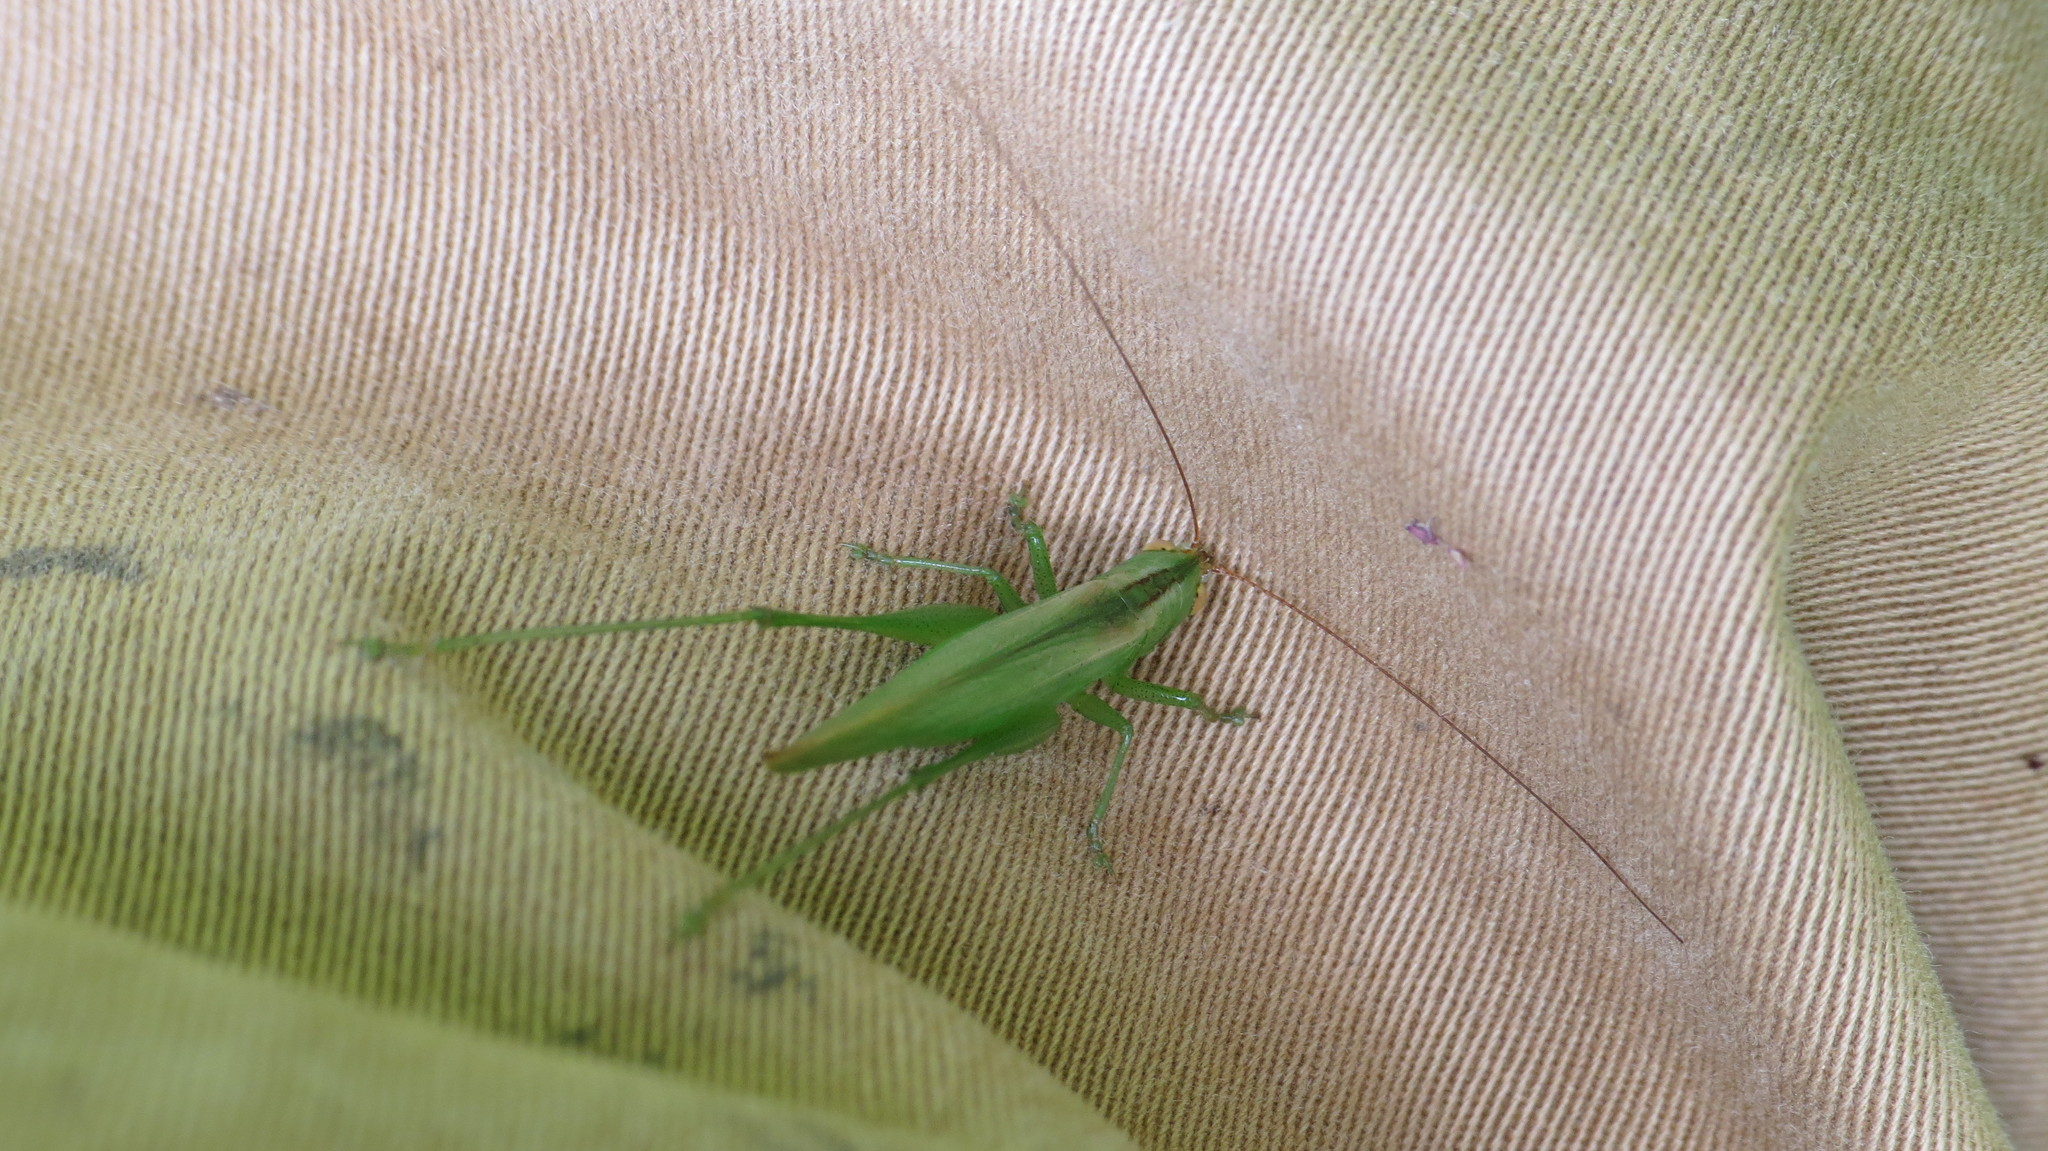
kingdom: Animalia
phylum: Arthropoda
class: Insecta
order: Orthoptera
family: Tettigoniidae
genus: Conocephalus
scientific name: Conocephalus longipes
